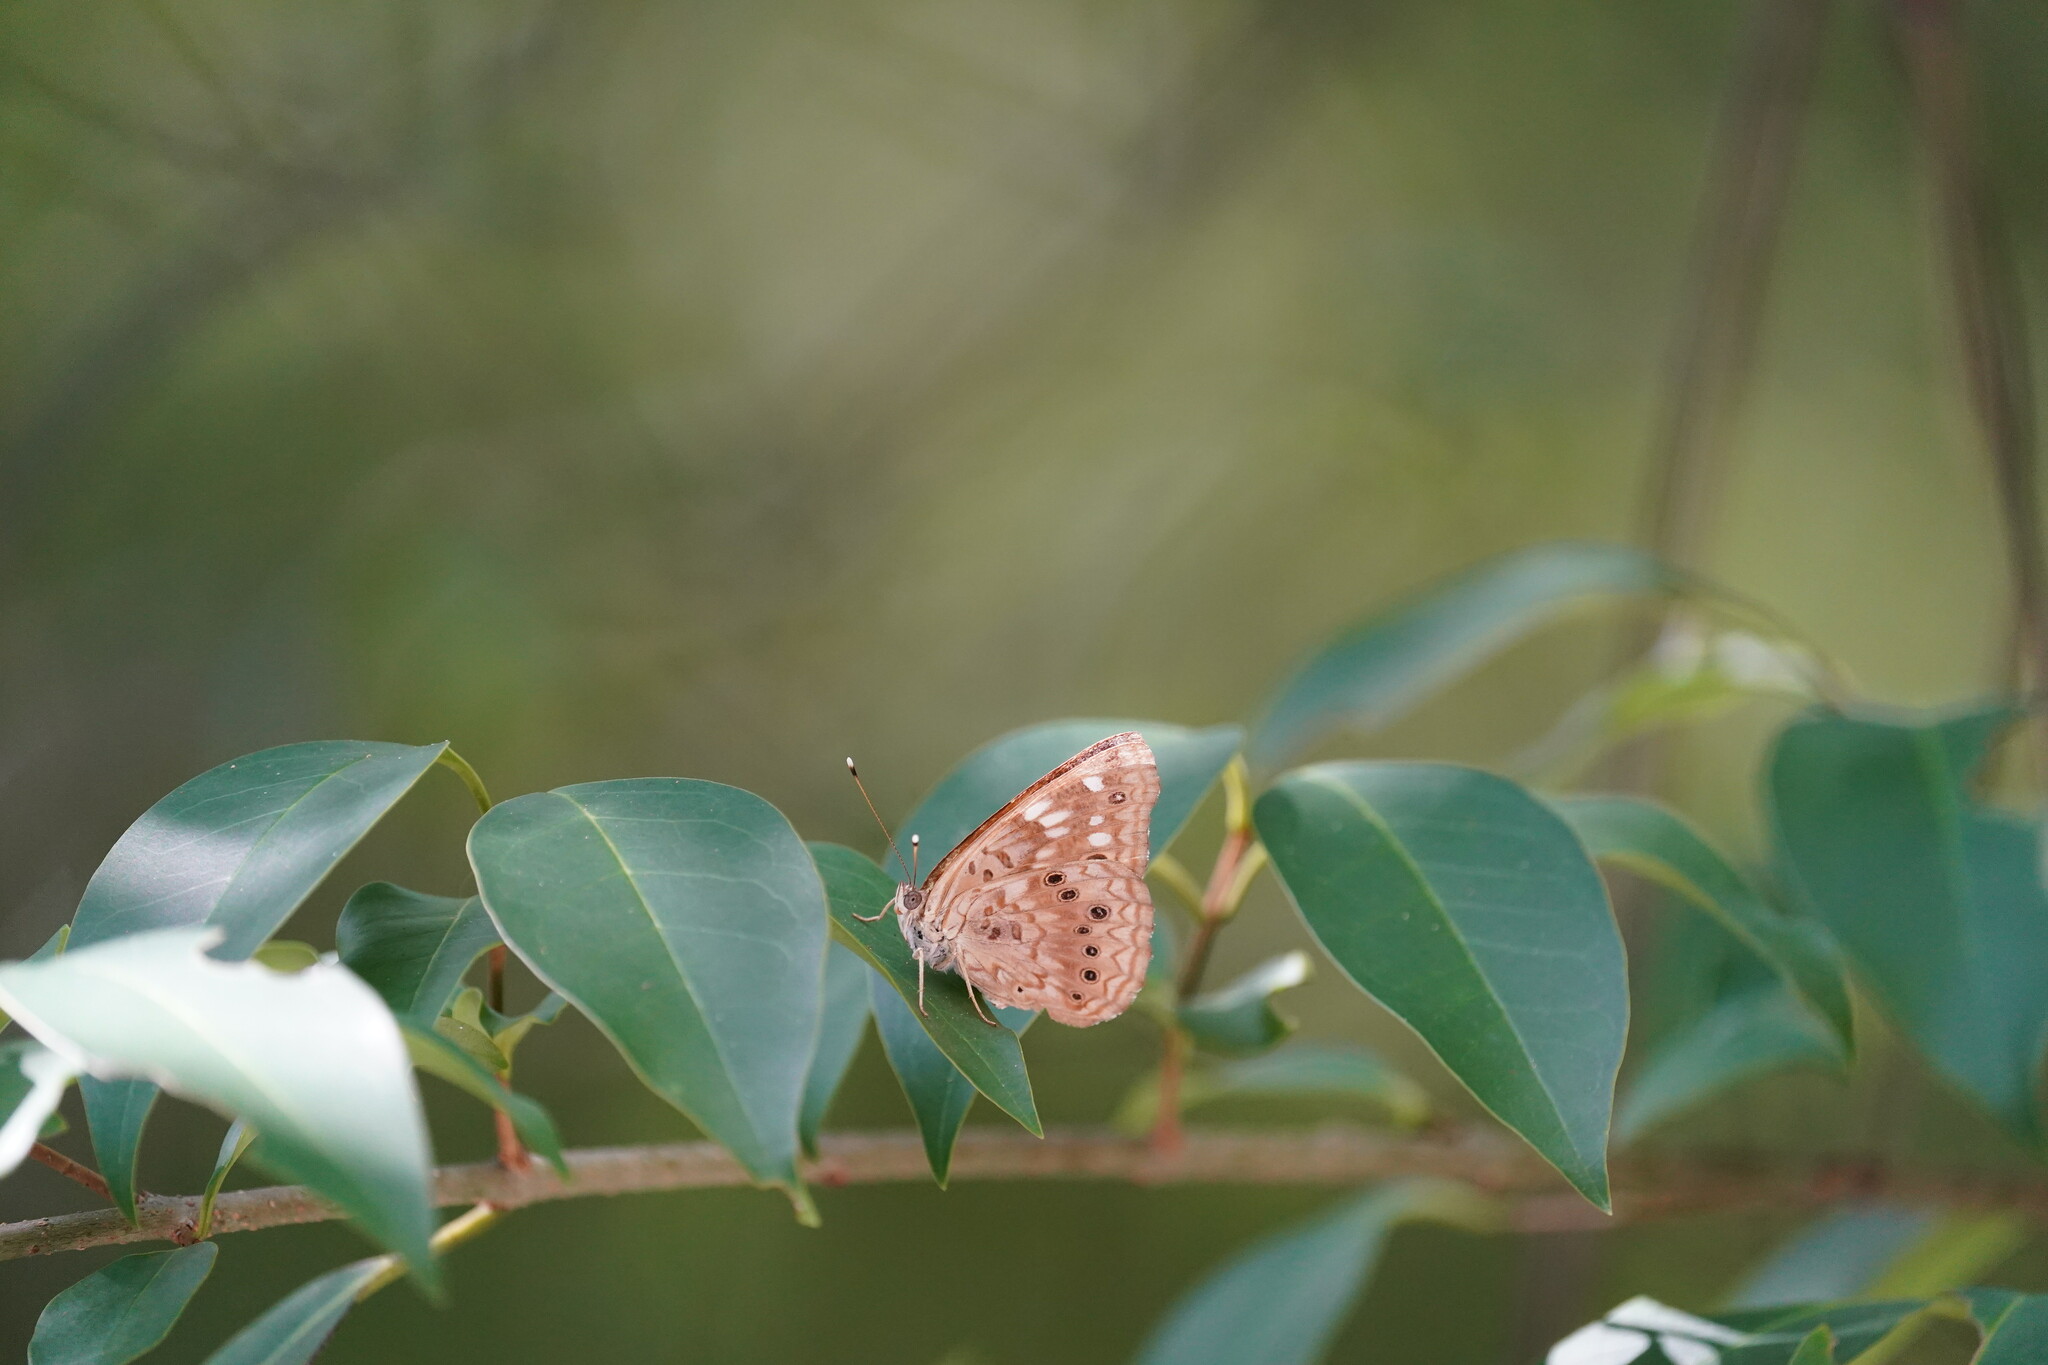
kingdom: Animalia
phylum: Arthropoda
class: Insecta
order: Lepidoptera
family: Nymphalidae
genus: Asterocampa
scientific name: Asterocampa celtis
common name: Hackberry emperor
